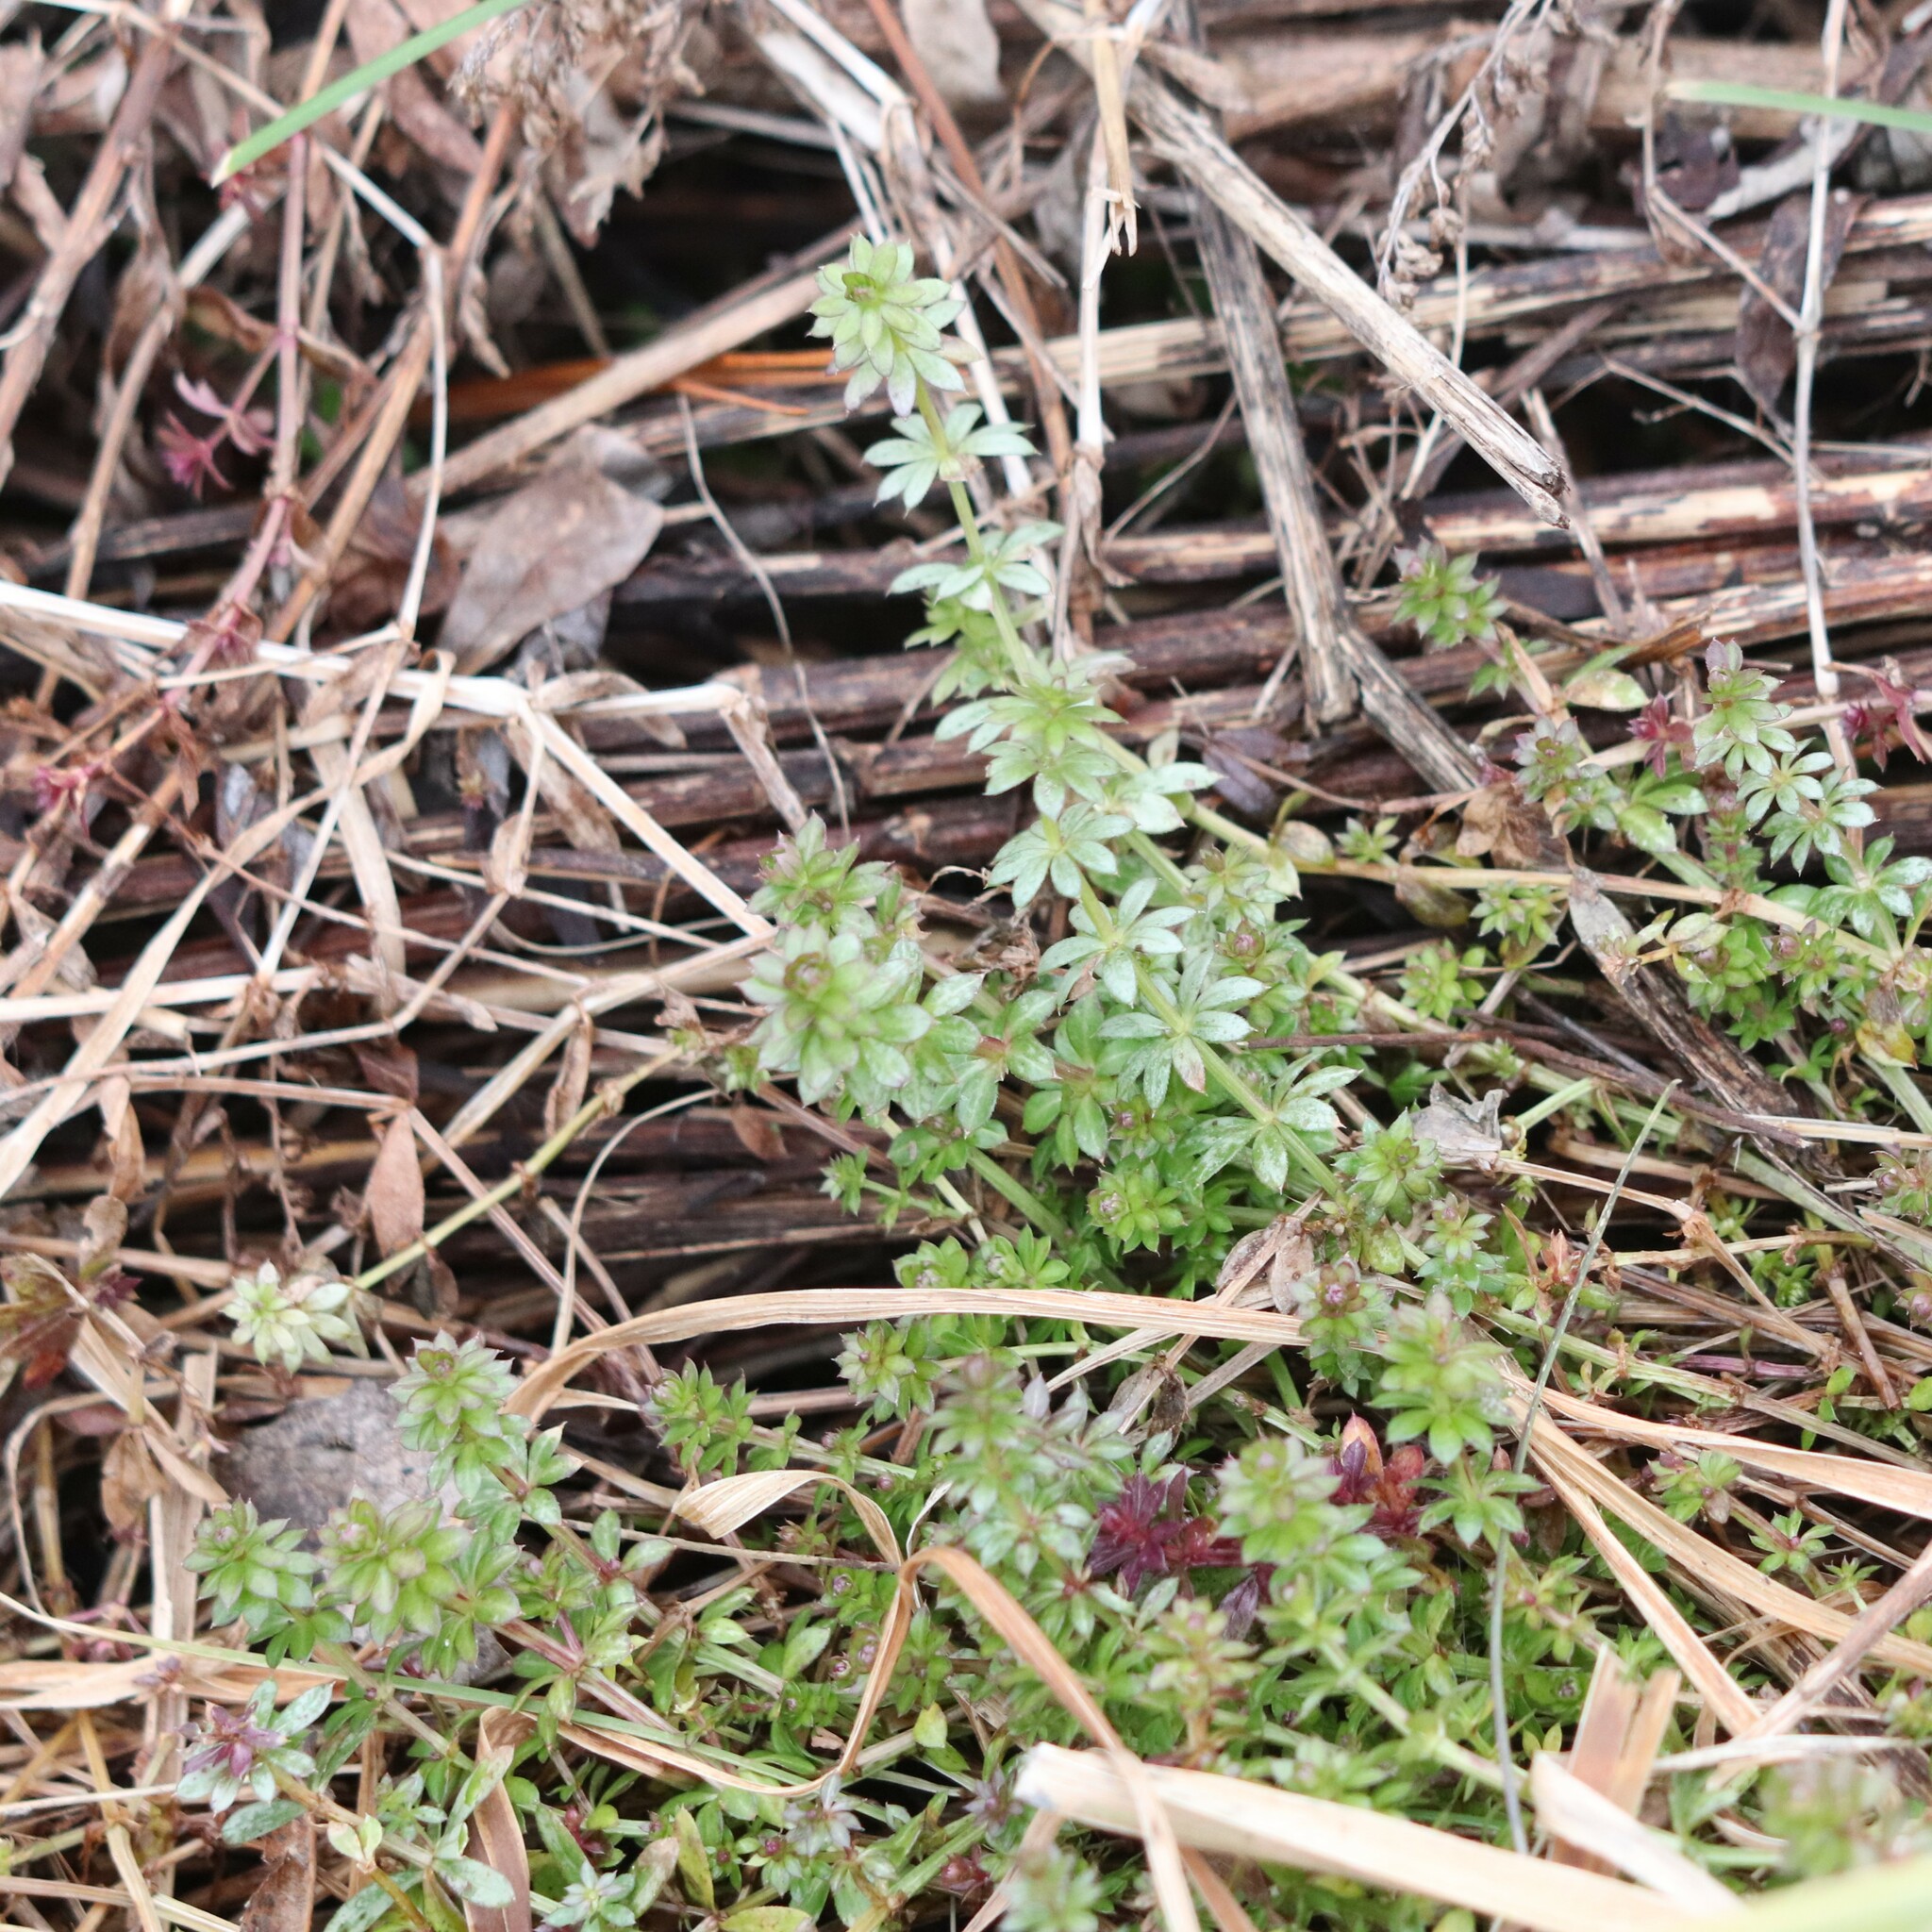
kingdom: Plantae
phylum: Tracheophyta
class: Magnoliopsida
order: Gentianales
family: Rubiaceae
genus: Galium
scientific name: Galium mollugo
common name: Hedge bedstraw
